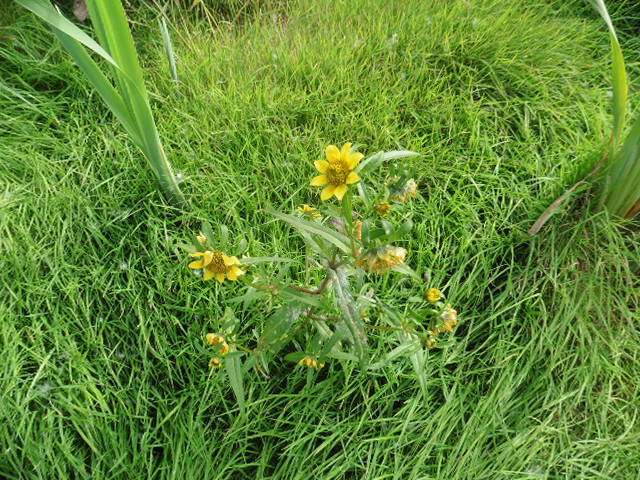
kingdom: Plantae
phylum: Tracheophyta
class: Magnoliopsida
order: Asterales
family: Asteraceae
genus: Bidens
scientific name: Bidens cernua
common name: Nodding bur-marigold
